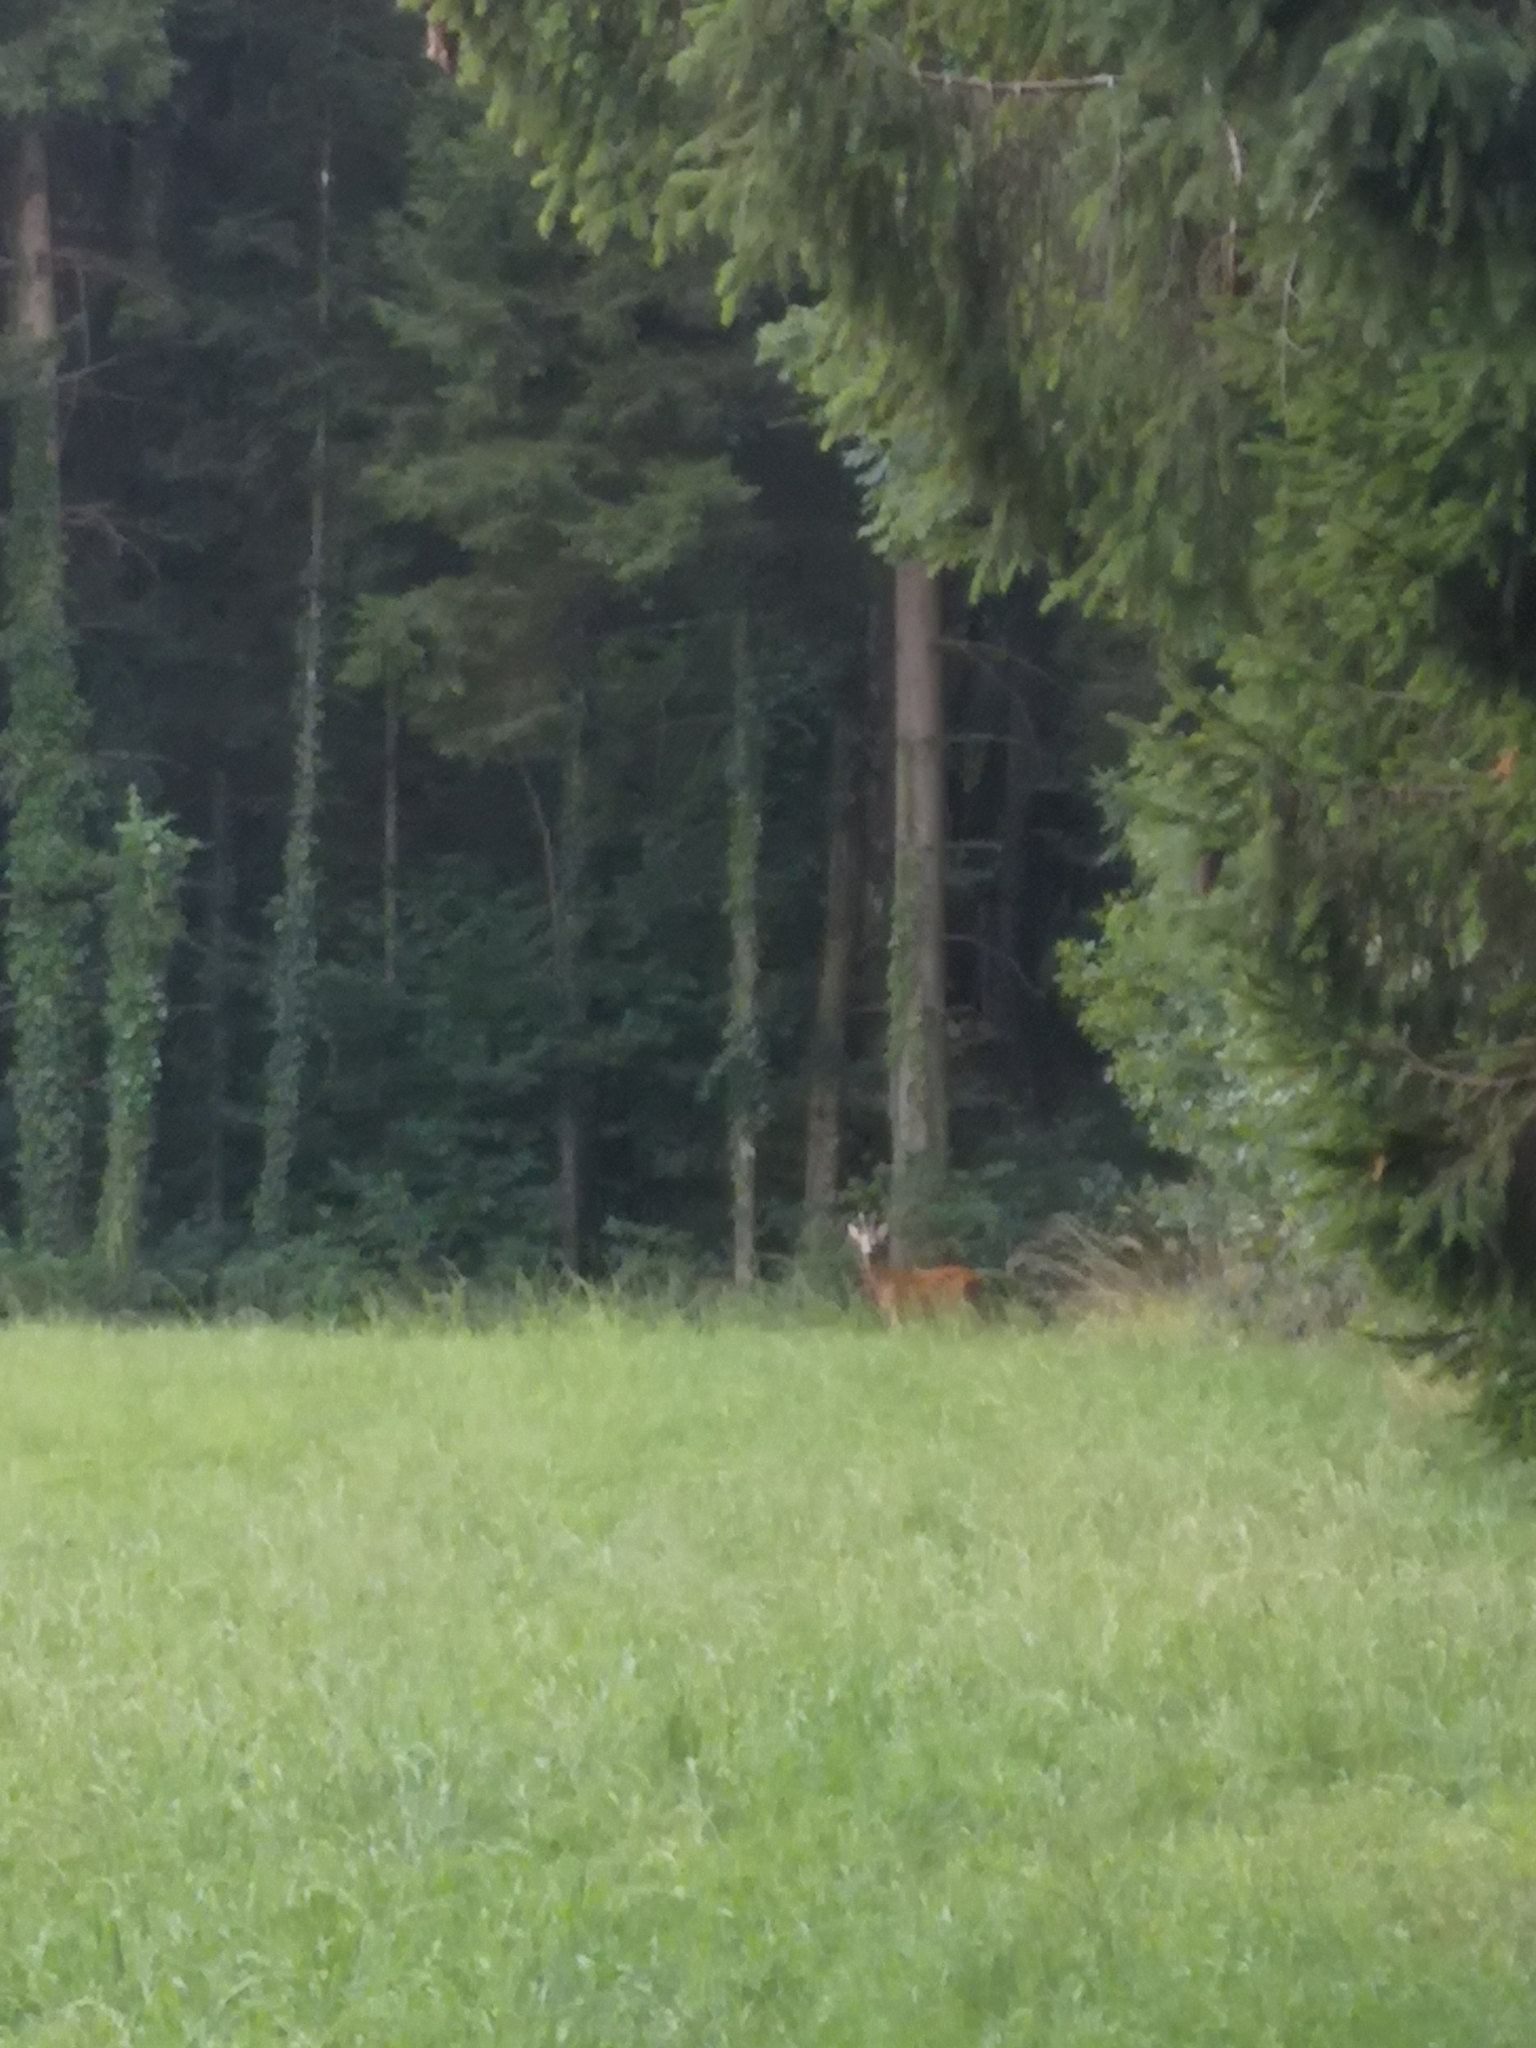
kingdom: Animalia
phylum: Chordata
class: Mammalia
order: Artiodactyla
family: Cervidae
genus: Capreolus
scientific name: Capreolus capreolus
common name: Western roe deer
